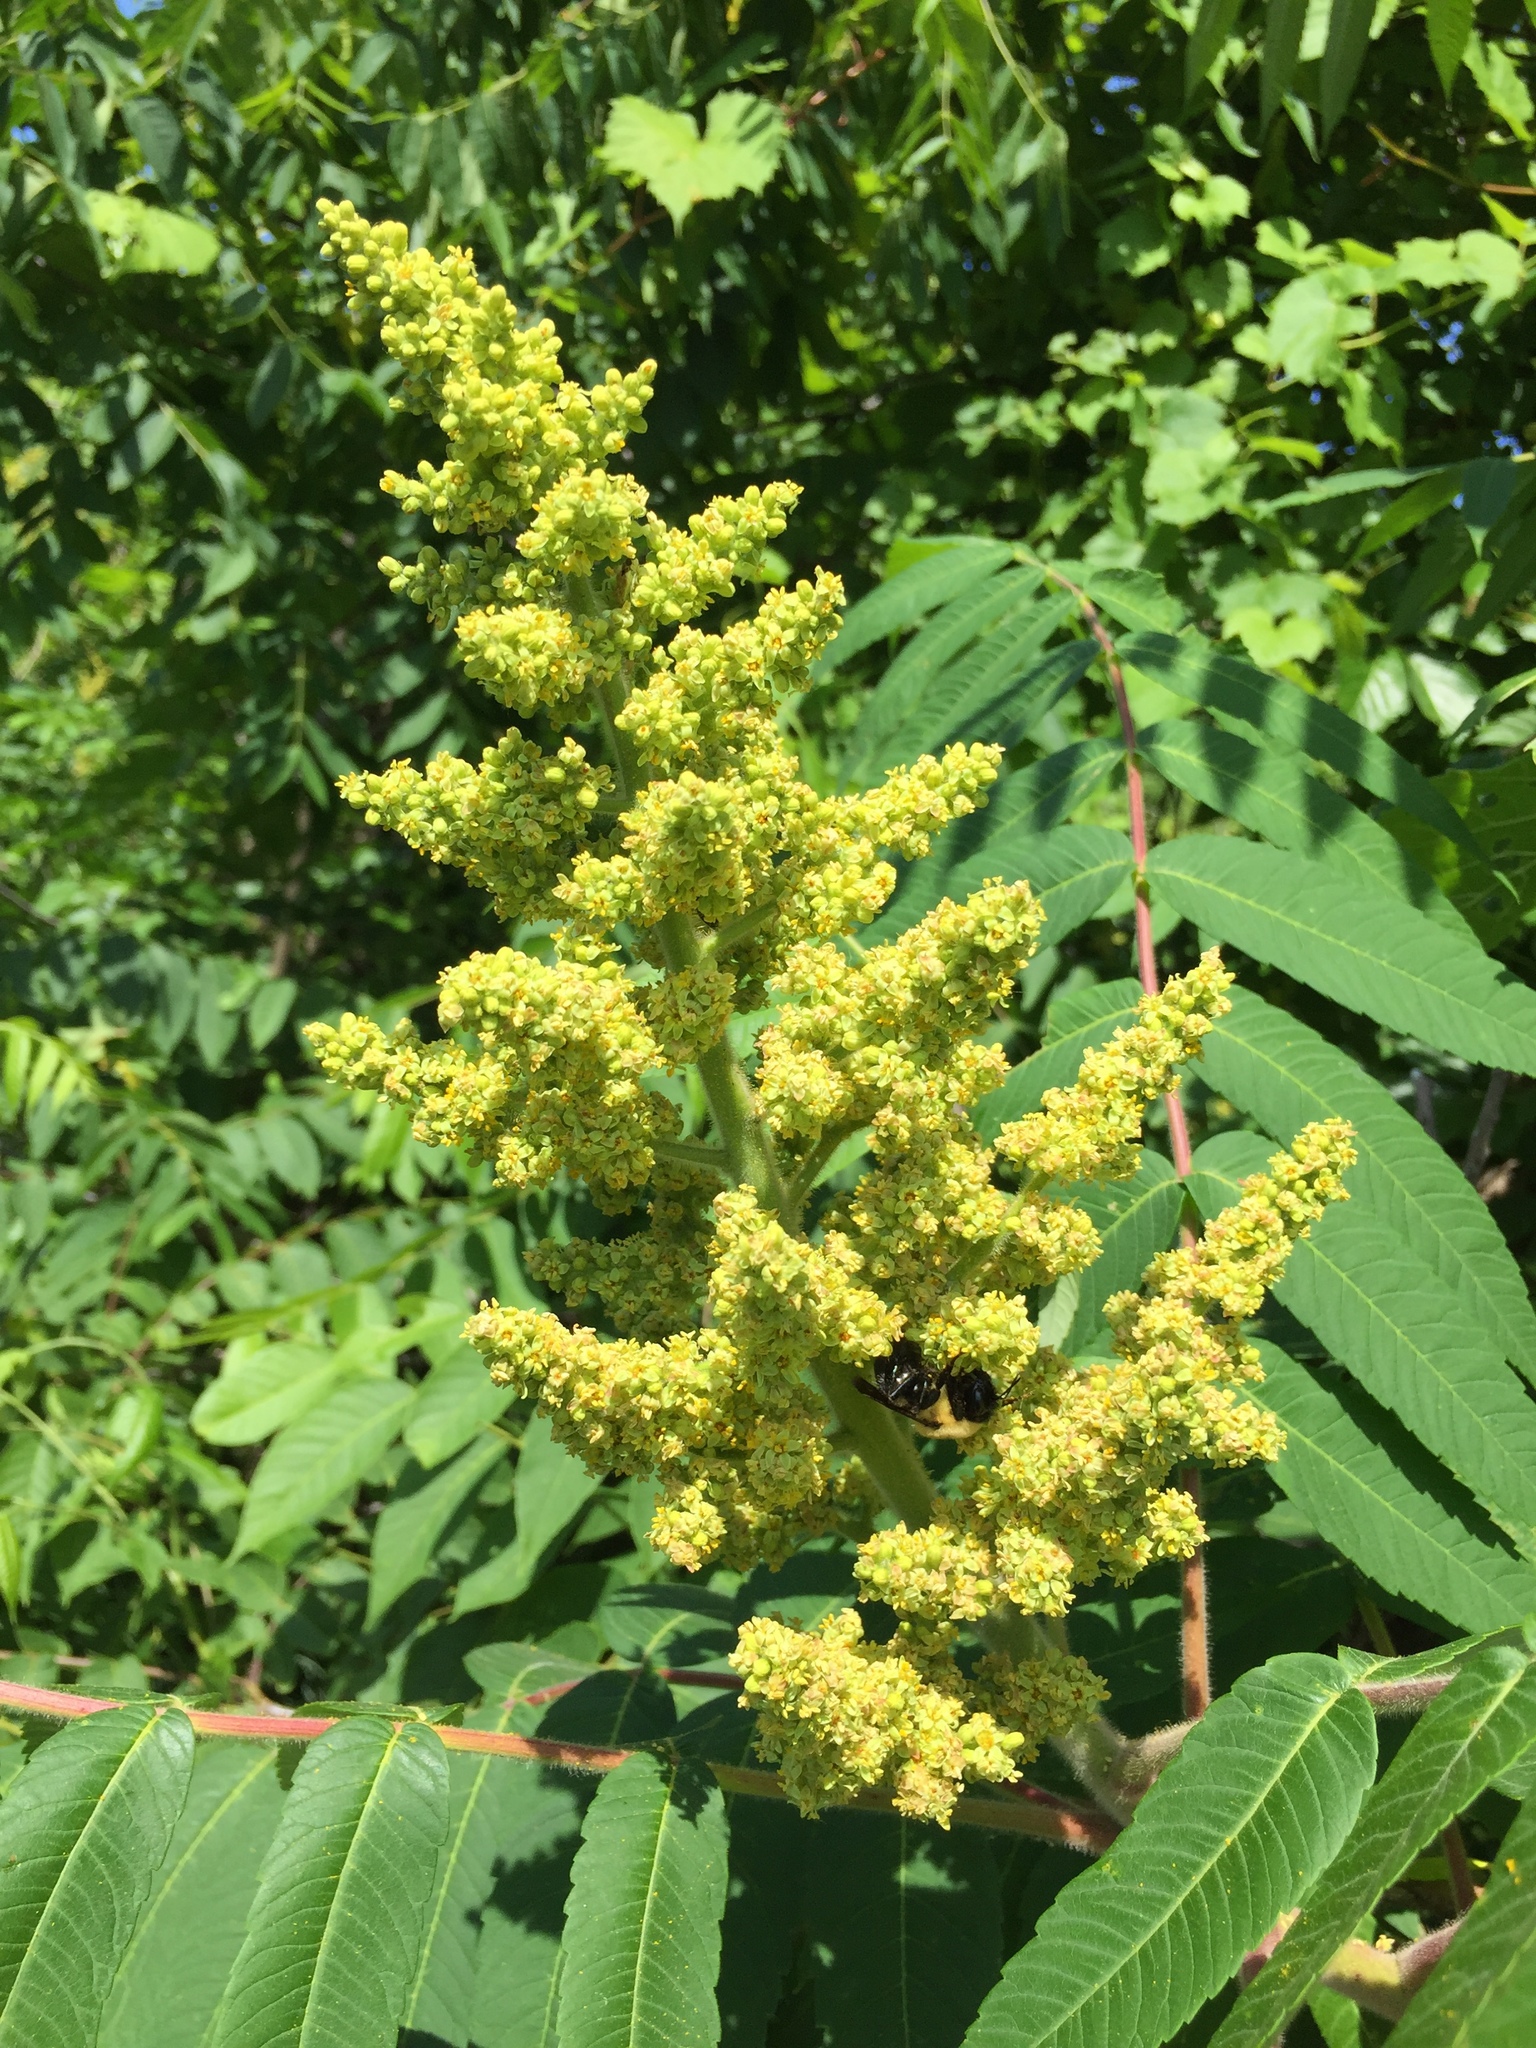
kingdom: Plantae
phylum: Tracheophyta
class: Magnoliopsida
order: Sapindales
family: Anacardiaceae
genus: Rhus
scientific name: Rhus typhina
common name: Staghorn sumac
